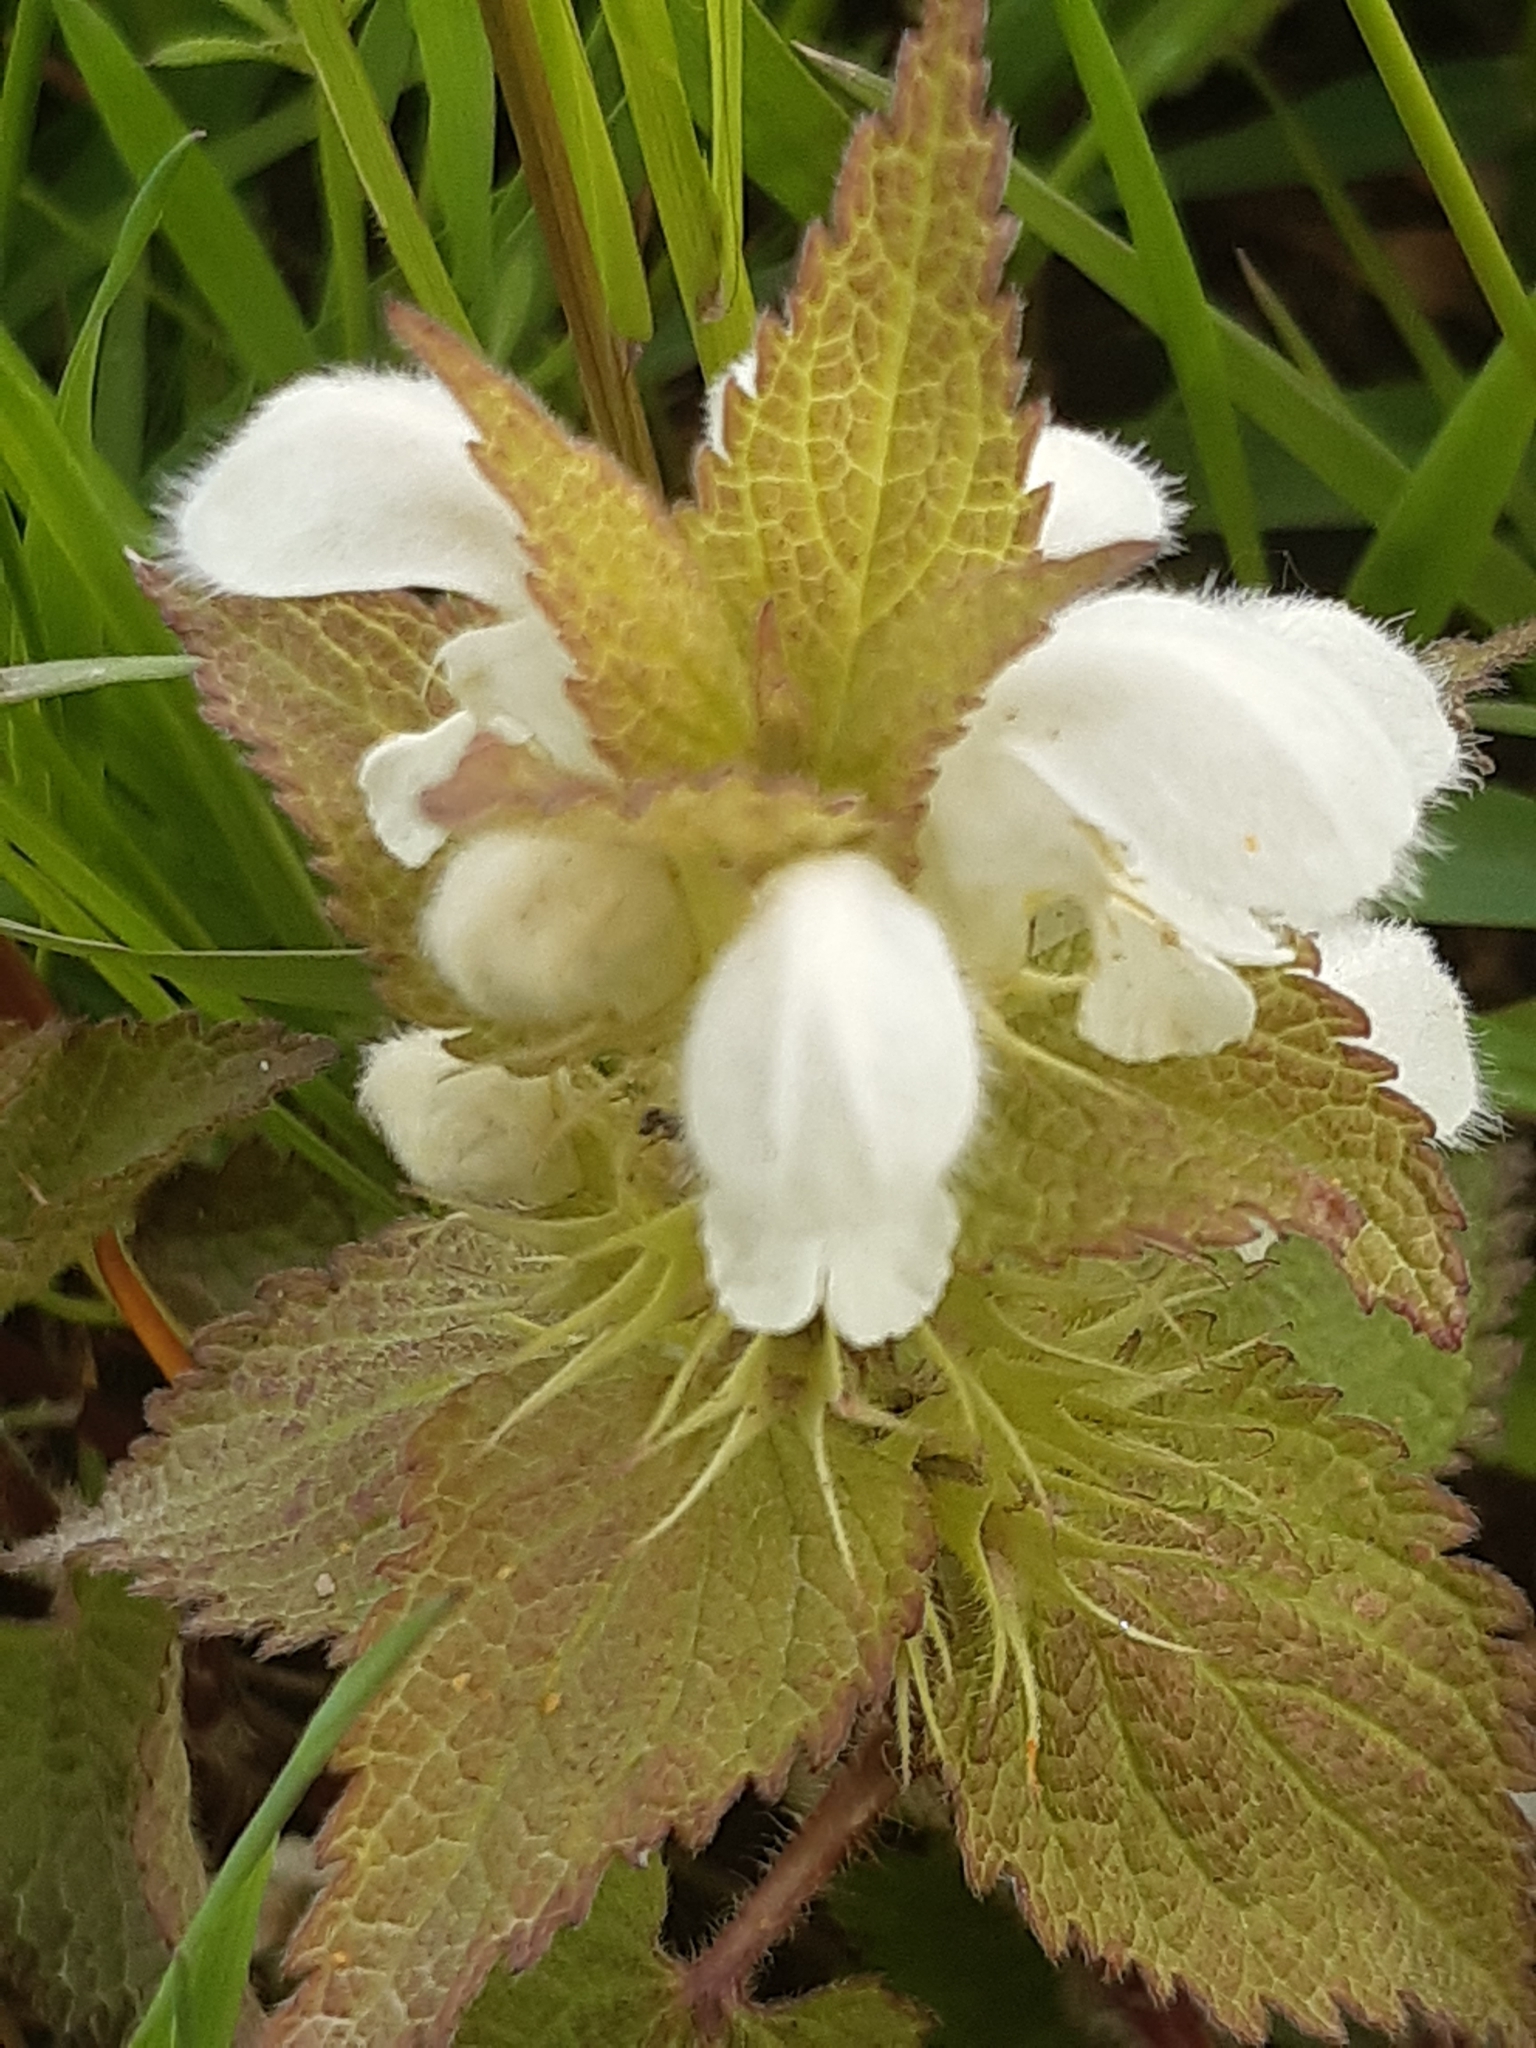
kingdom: Plantae
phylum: Tracheophyta
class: Magnoliopsida
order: Lamiales
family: Lamiaceae
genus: Lamium
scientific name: Lamium album
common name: White dead-nettle
